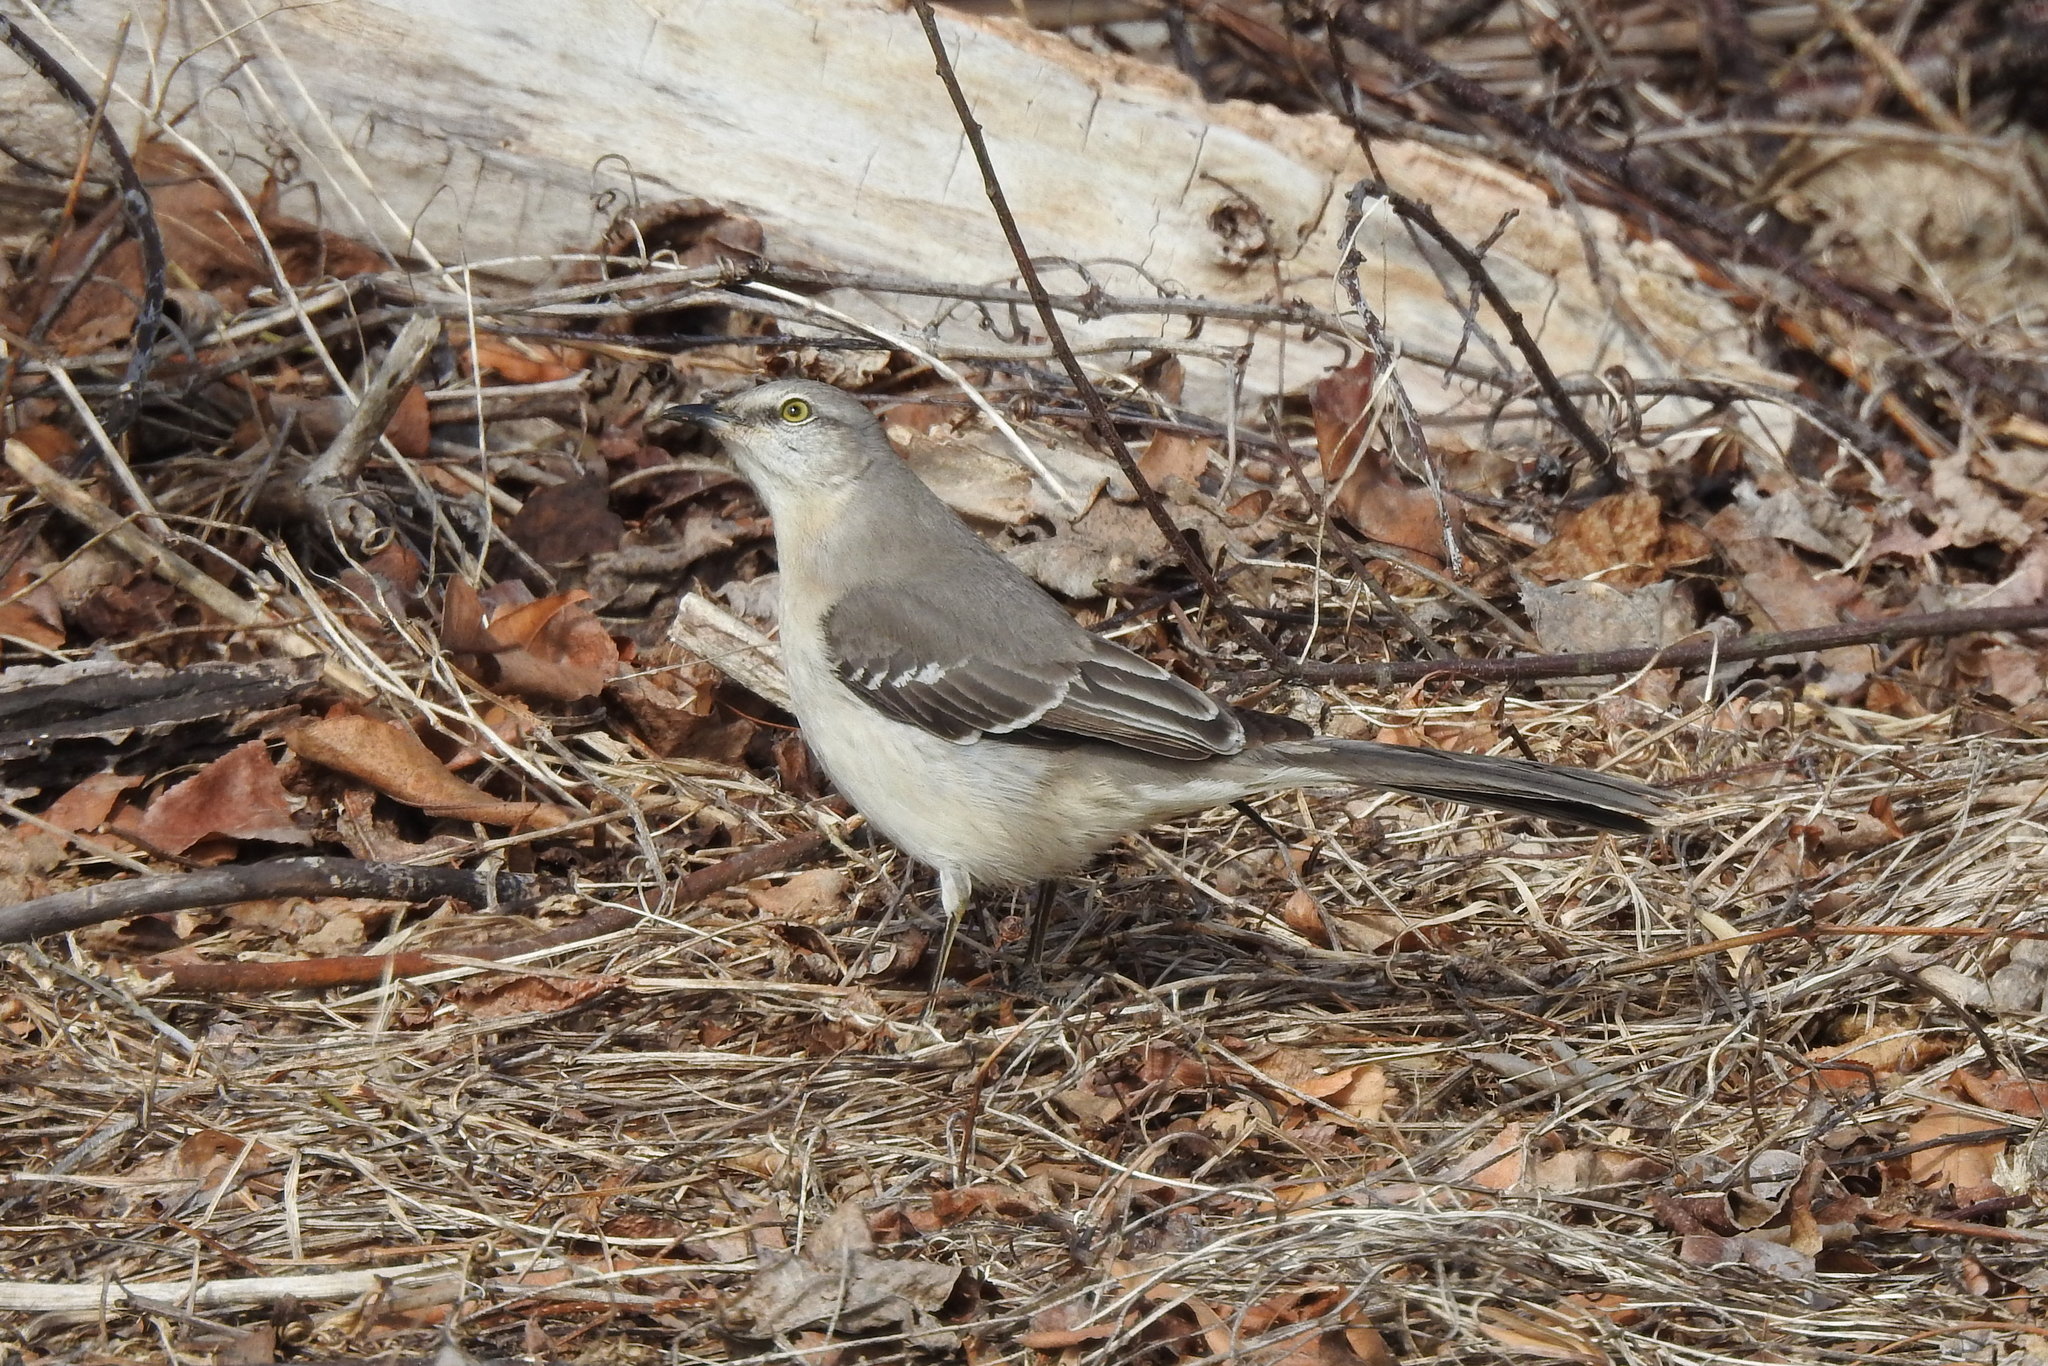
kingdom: Animalia
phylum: Chordata
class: Aves
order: Passeriformes
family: Mimidae
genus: Mimus
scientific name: Mimus polyglottos
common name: Northern mockingbird
